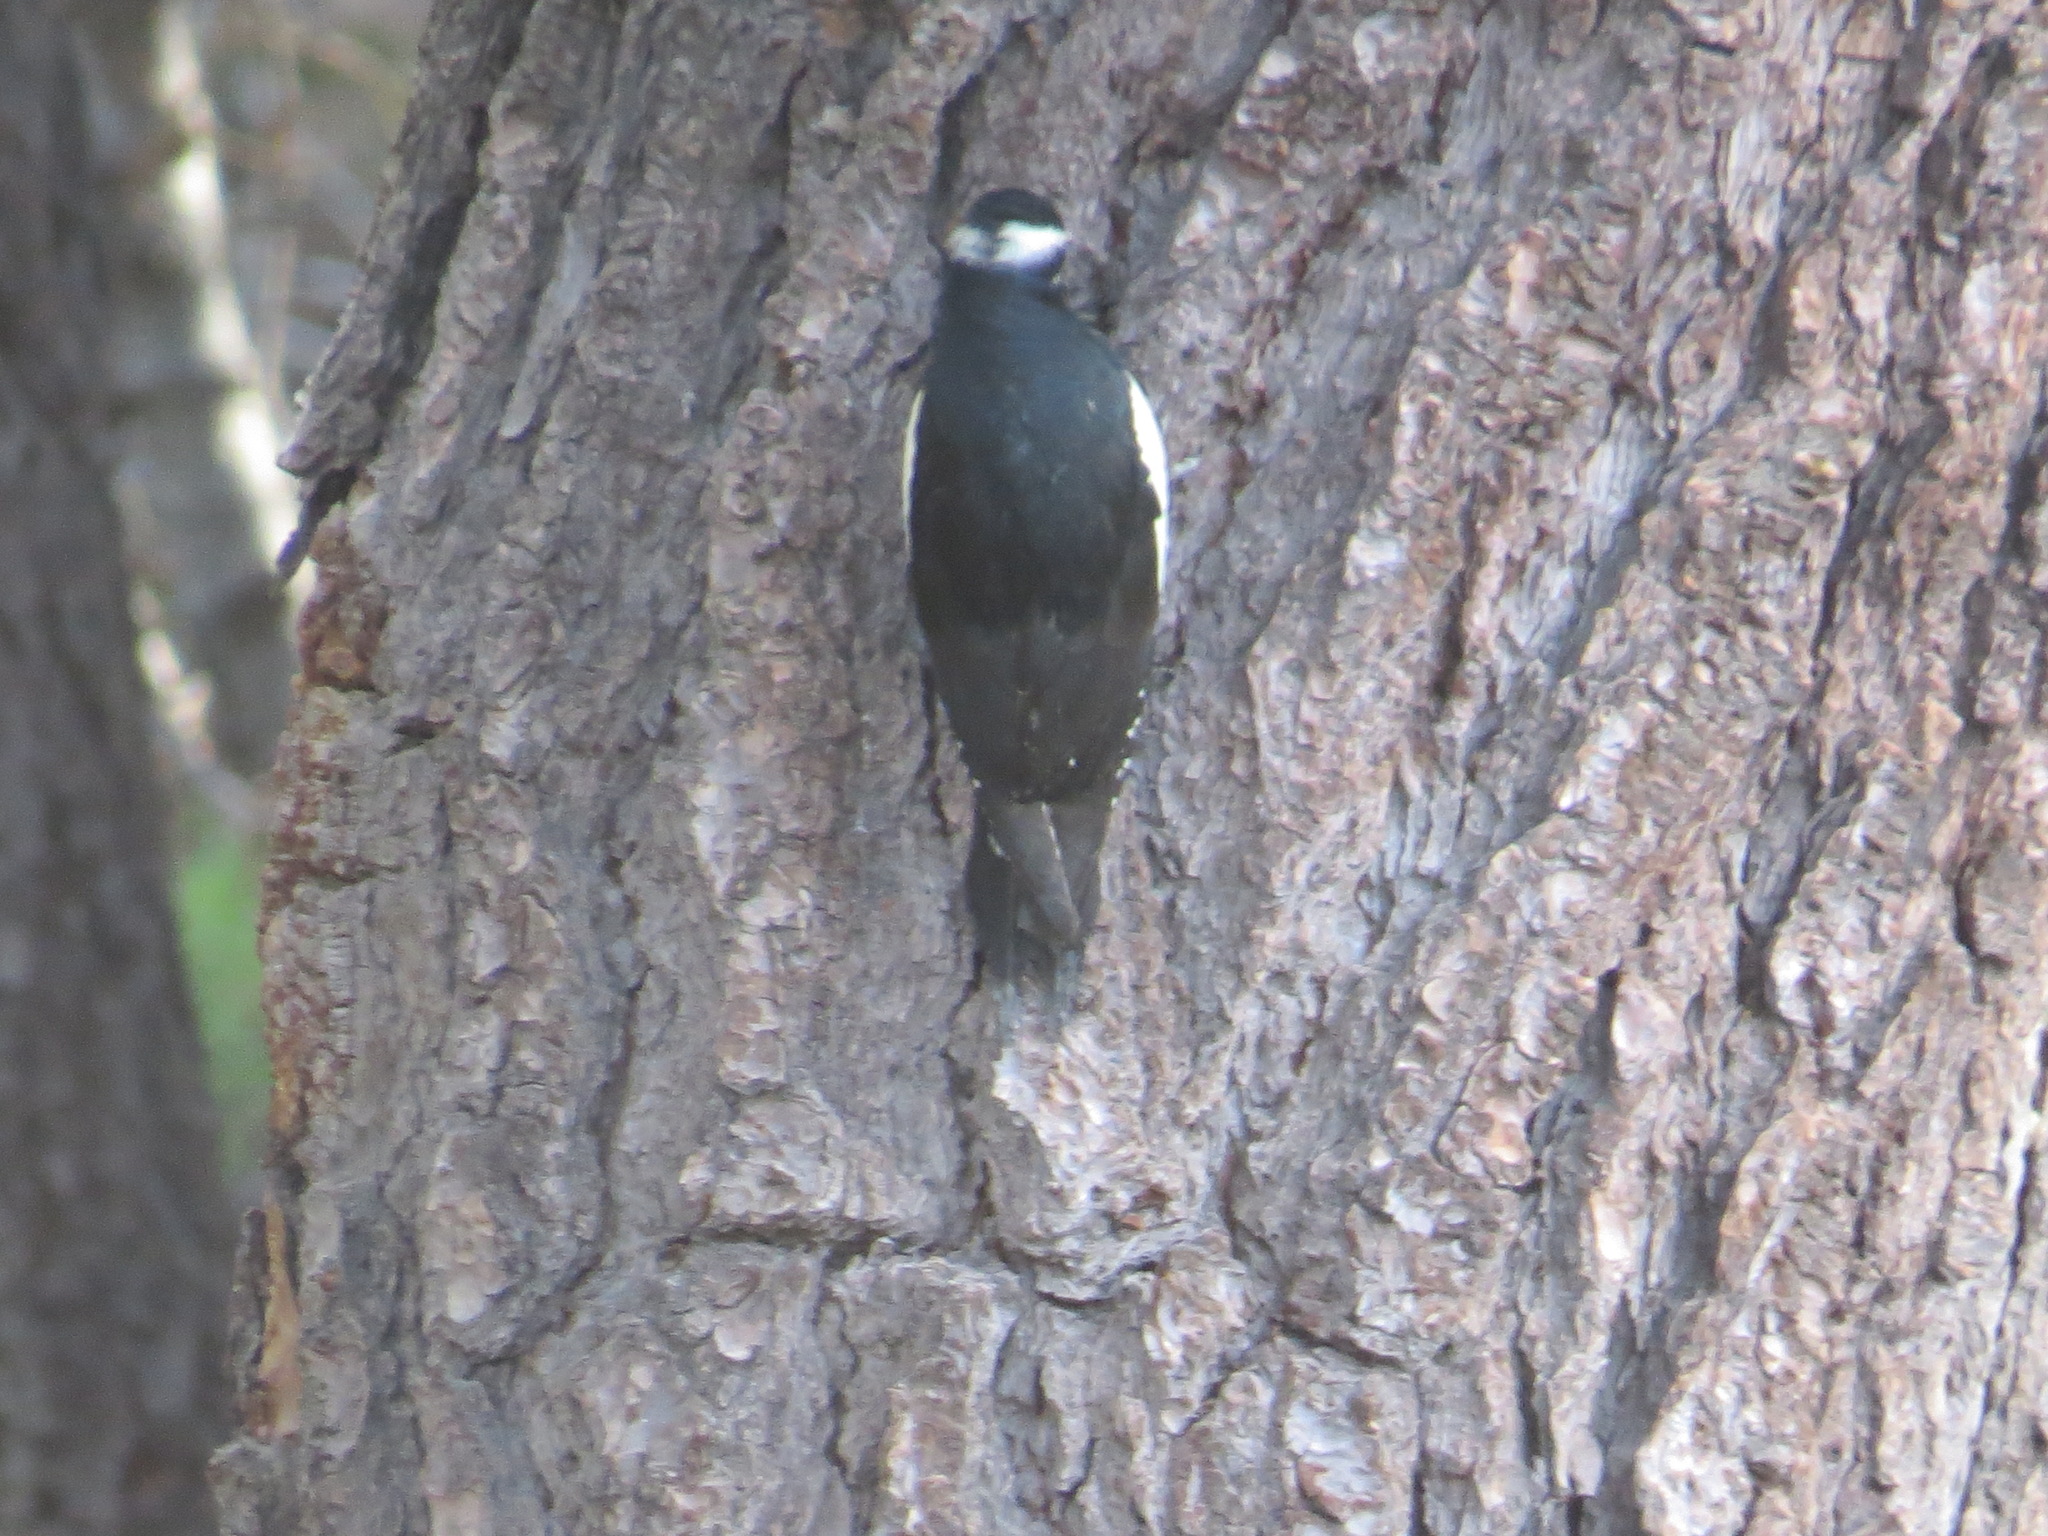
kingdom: Animalia
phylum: Chordata
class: Aves
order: Piciformes
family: Picidae
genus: Sphyrapicus
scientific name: Sphyrapicus thyroideus
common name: Williamson's sapsucker
